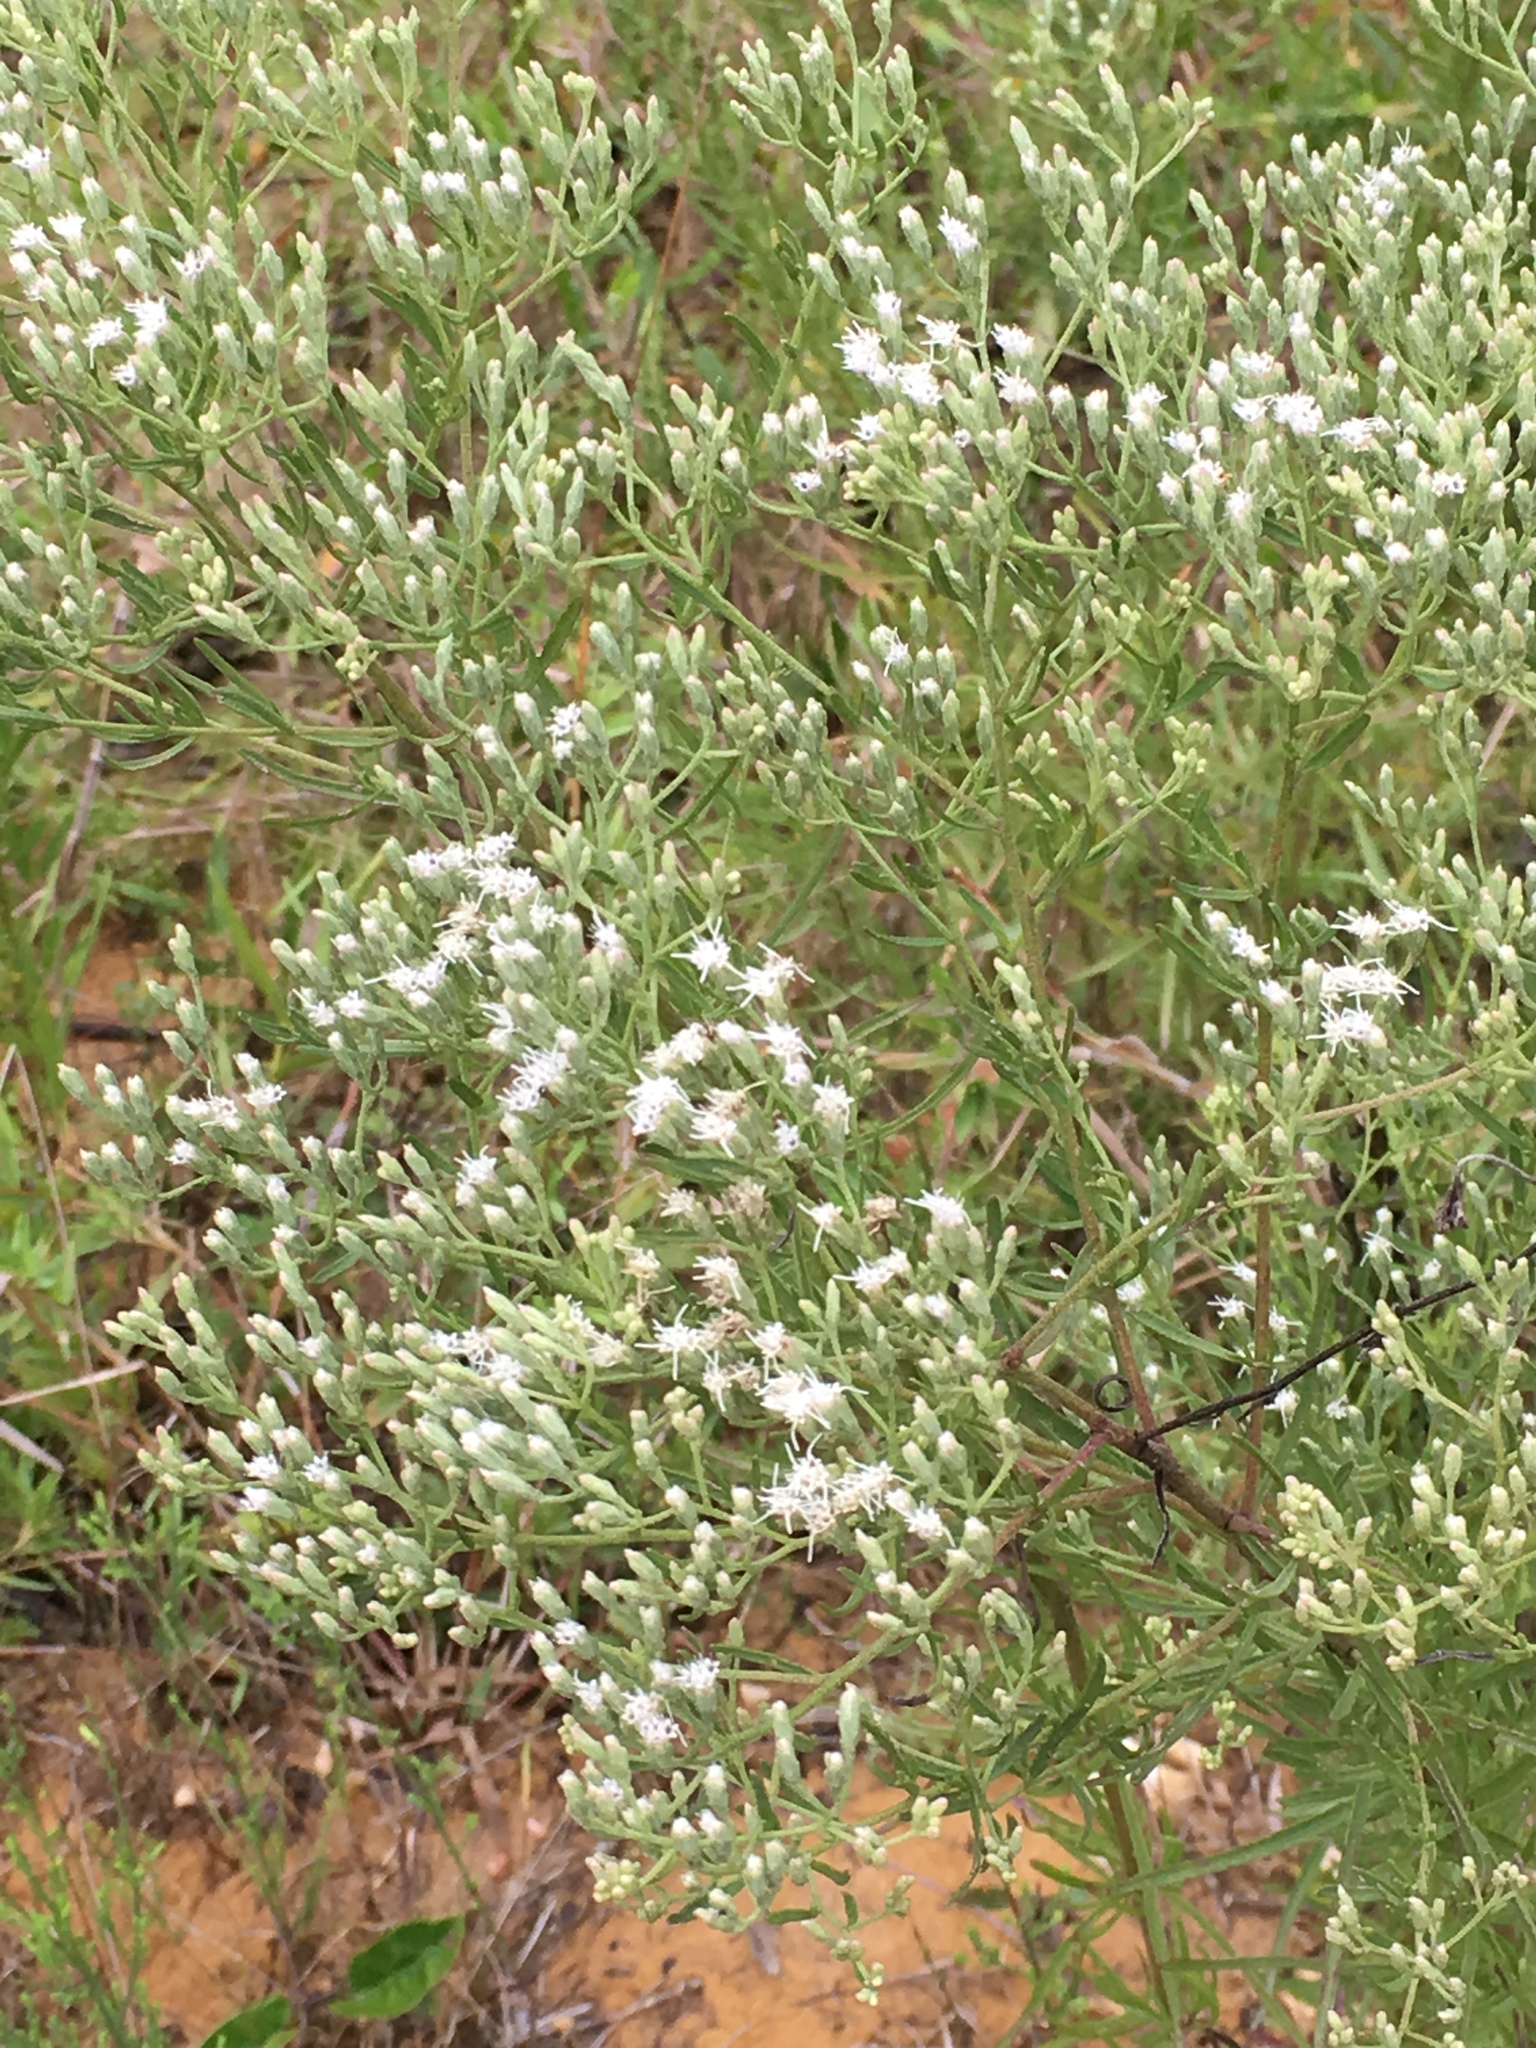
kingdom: Plantae
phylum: Tracheophyta
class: Magnoliopsida
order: Asterales
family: Asteraceae
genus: Eupatorium
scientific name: Eupatorium hyssopifolium
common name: Hyssop-leaf thoroughwort
